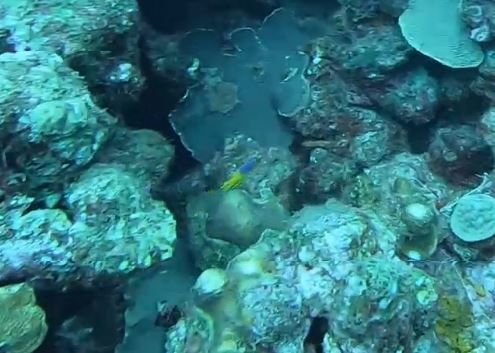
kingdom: Animalia
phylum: Chordata
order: Perciformes
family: Labridae
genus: Bodianus
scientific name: Bodianus rufus
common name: Spanish hogfish
